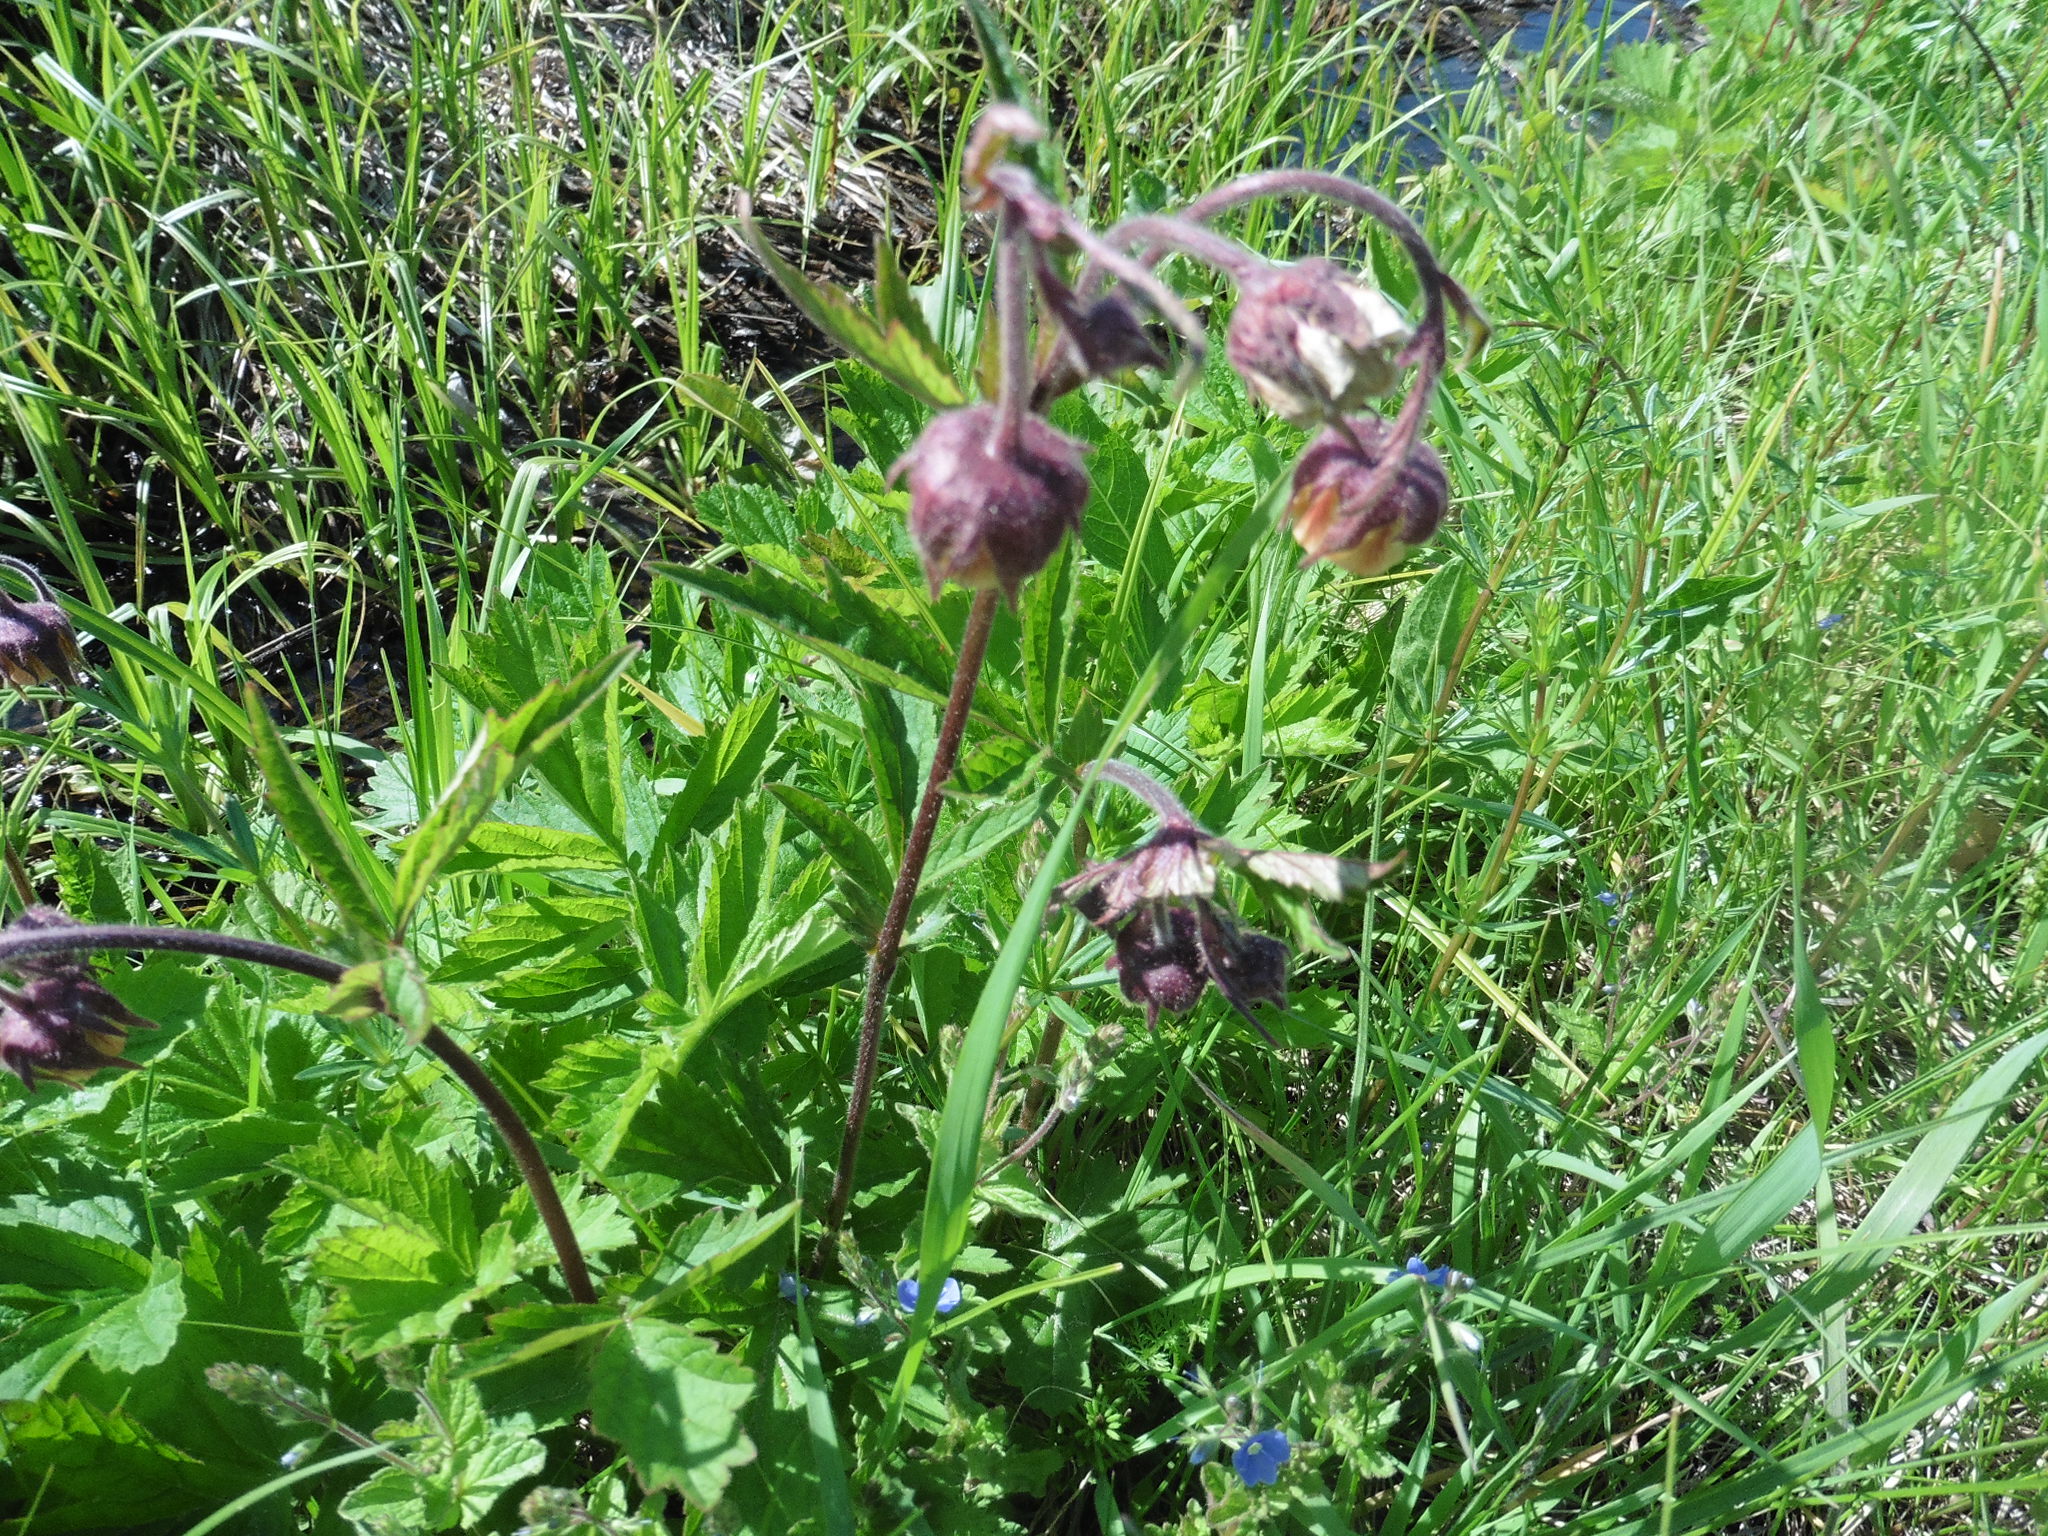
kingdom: Plantae
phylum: Tracheophyta
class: Magnoliopsida
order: Rosales
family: Rosaceae
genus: Geum
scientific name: Geum rivale
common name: Water avens
